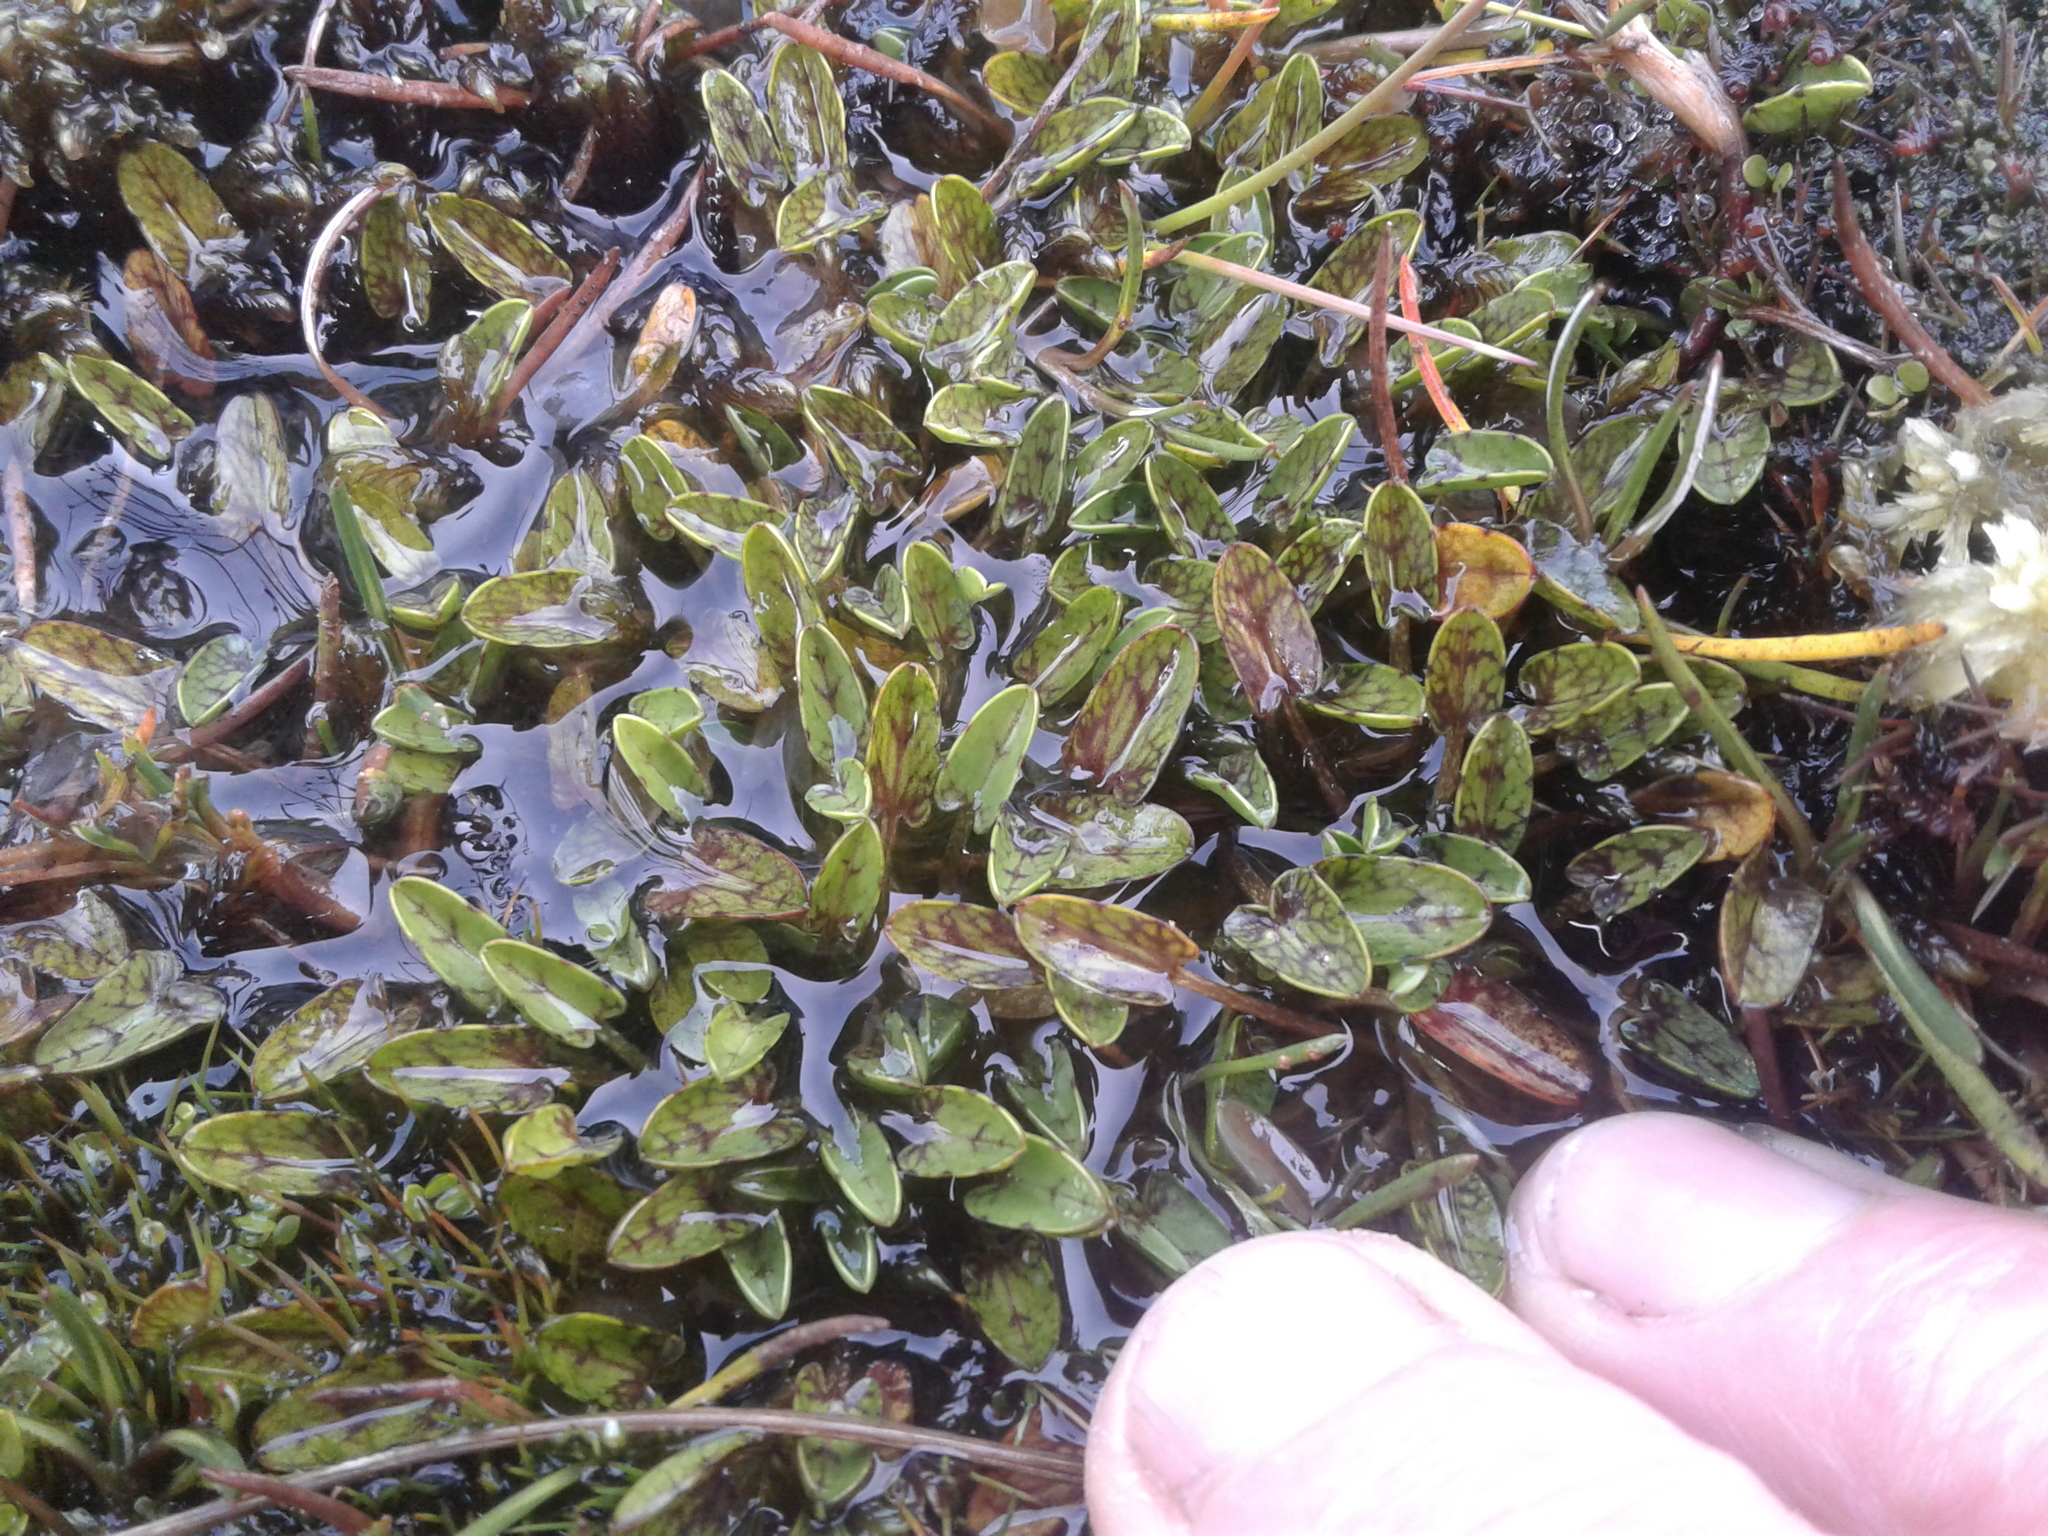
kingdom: Plantae
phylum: Tracheophyta
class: Magnoliopsida
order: Ranunculales
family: Ranunculaceae
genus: Caltha
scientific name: Caltha obtusa
